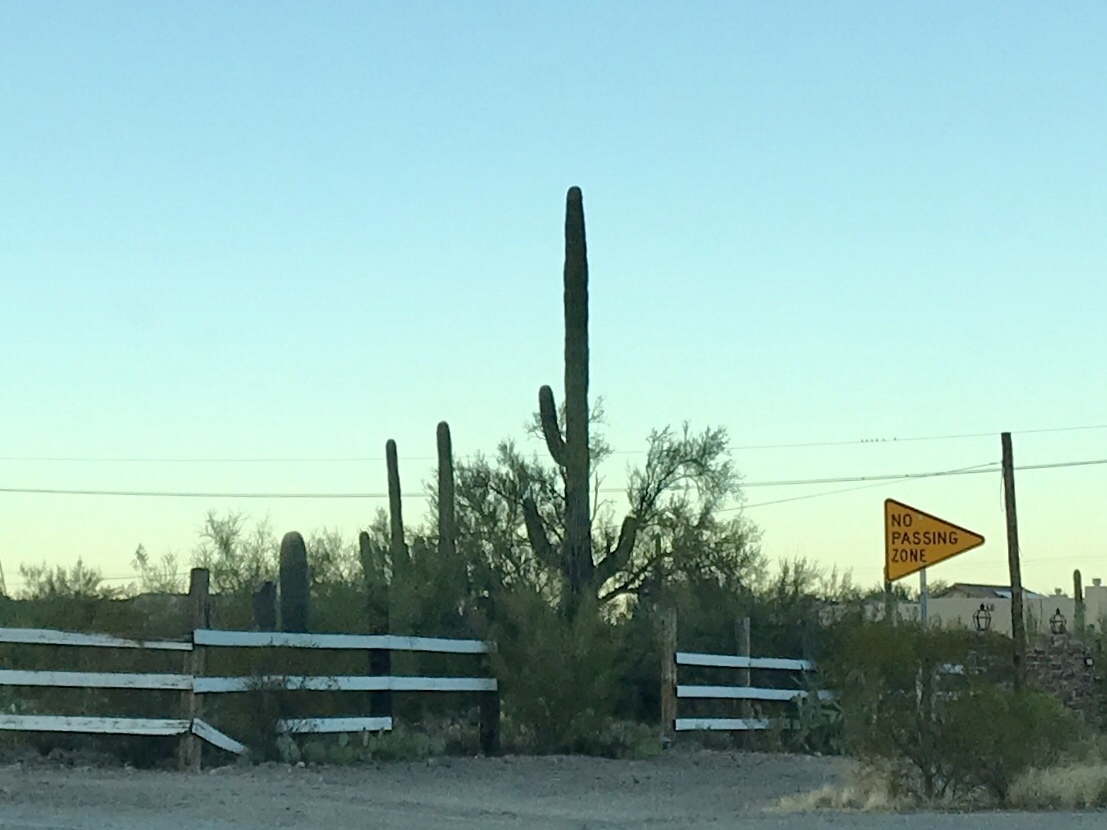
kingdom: Plantae
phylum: Tracheophyta
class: Magnoliopsida
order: Caryophyllales
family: Cactaceae
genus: Carnegiea
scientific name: Carnegiea gigantea
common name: Saguaro
